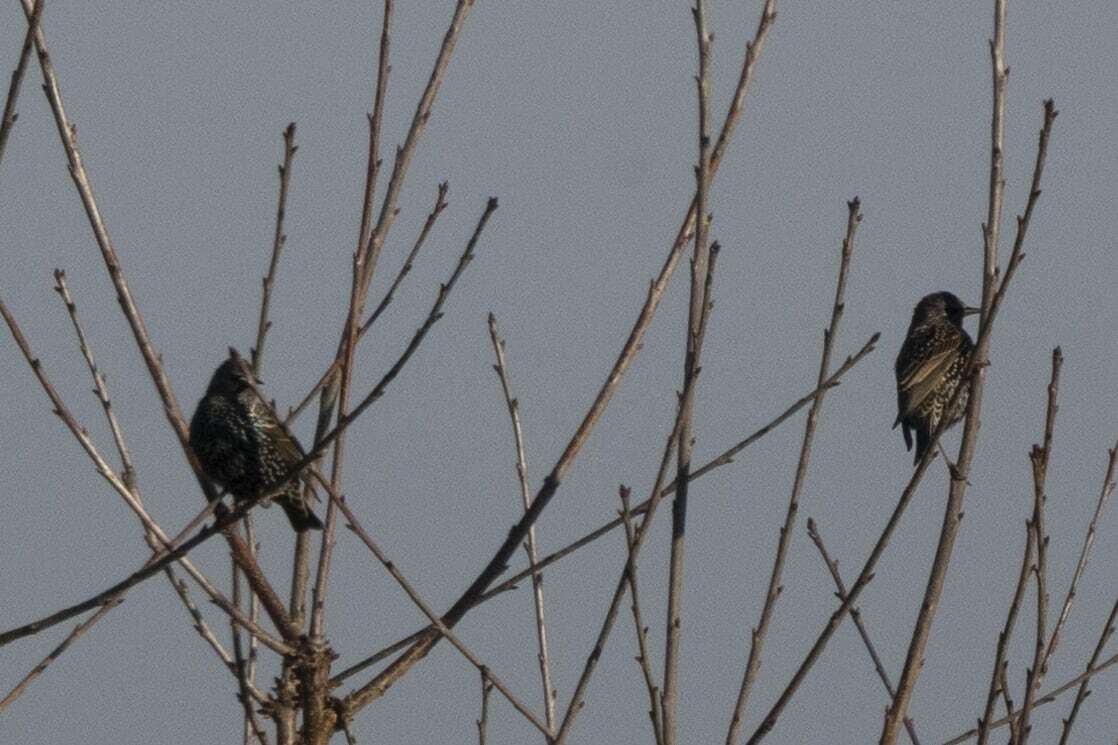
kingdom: Animalia
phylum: Chordata
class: Aves
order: Passeriformes
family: Sturnidae
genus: Sturnus
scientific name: Sturnus vulgaris
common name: Common starling
